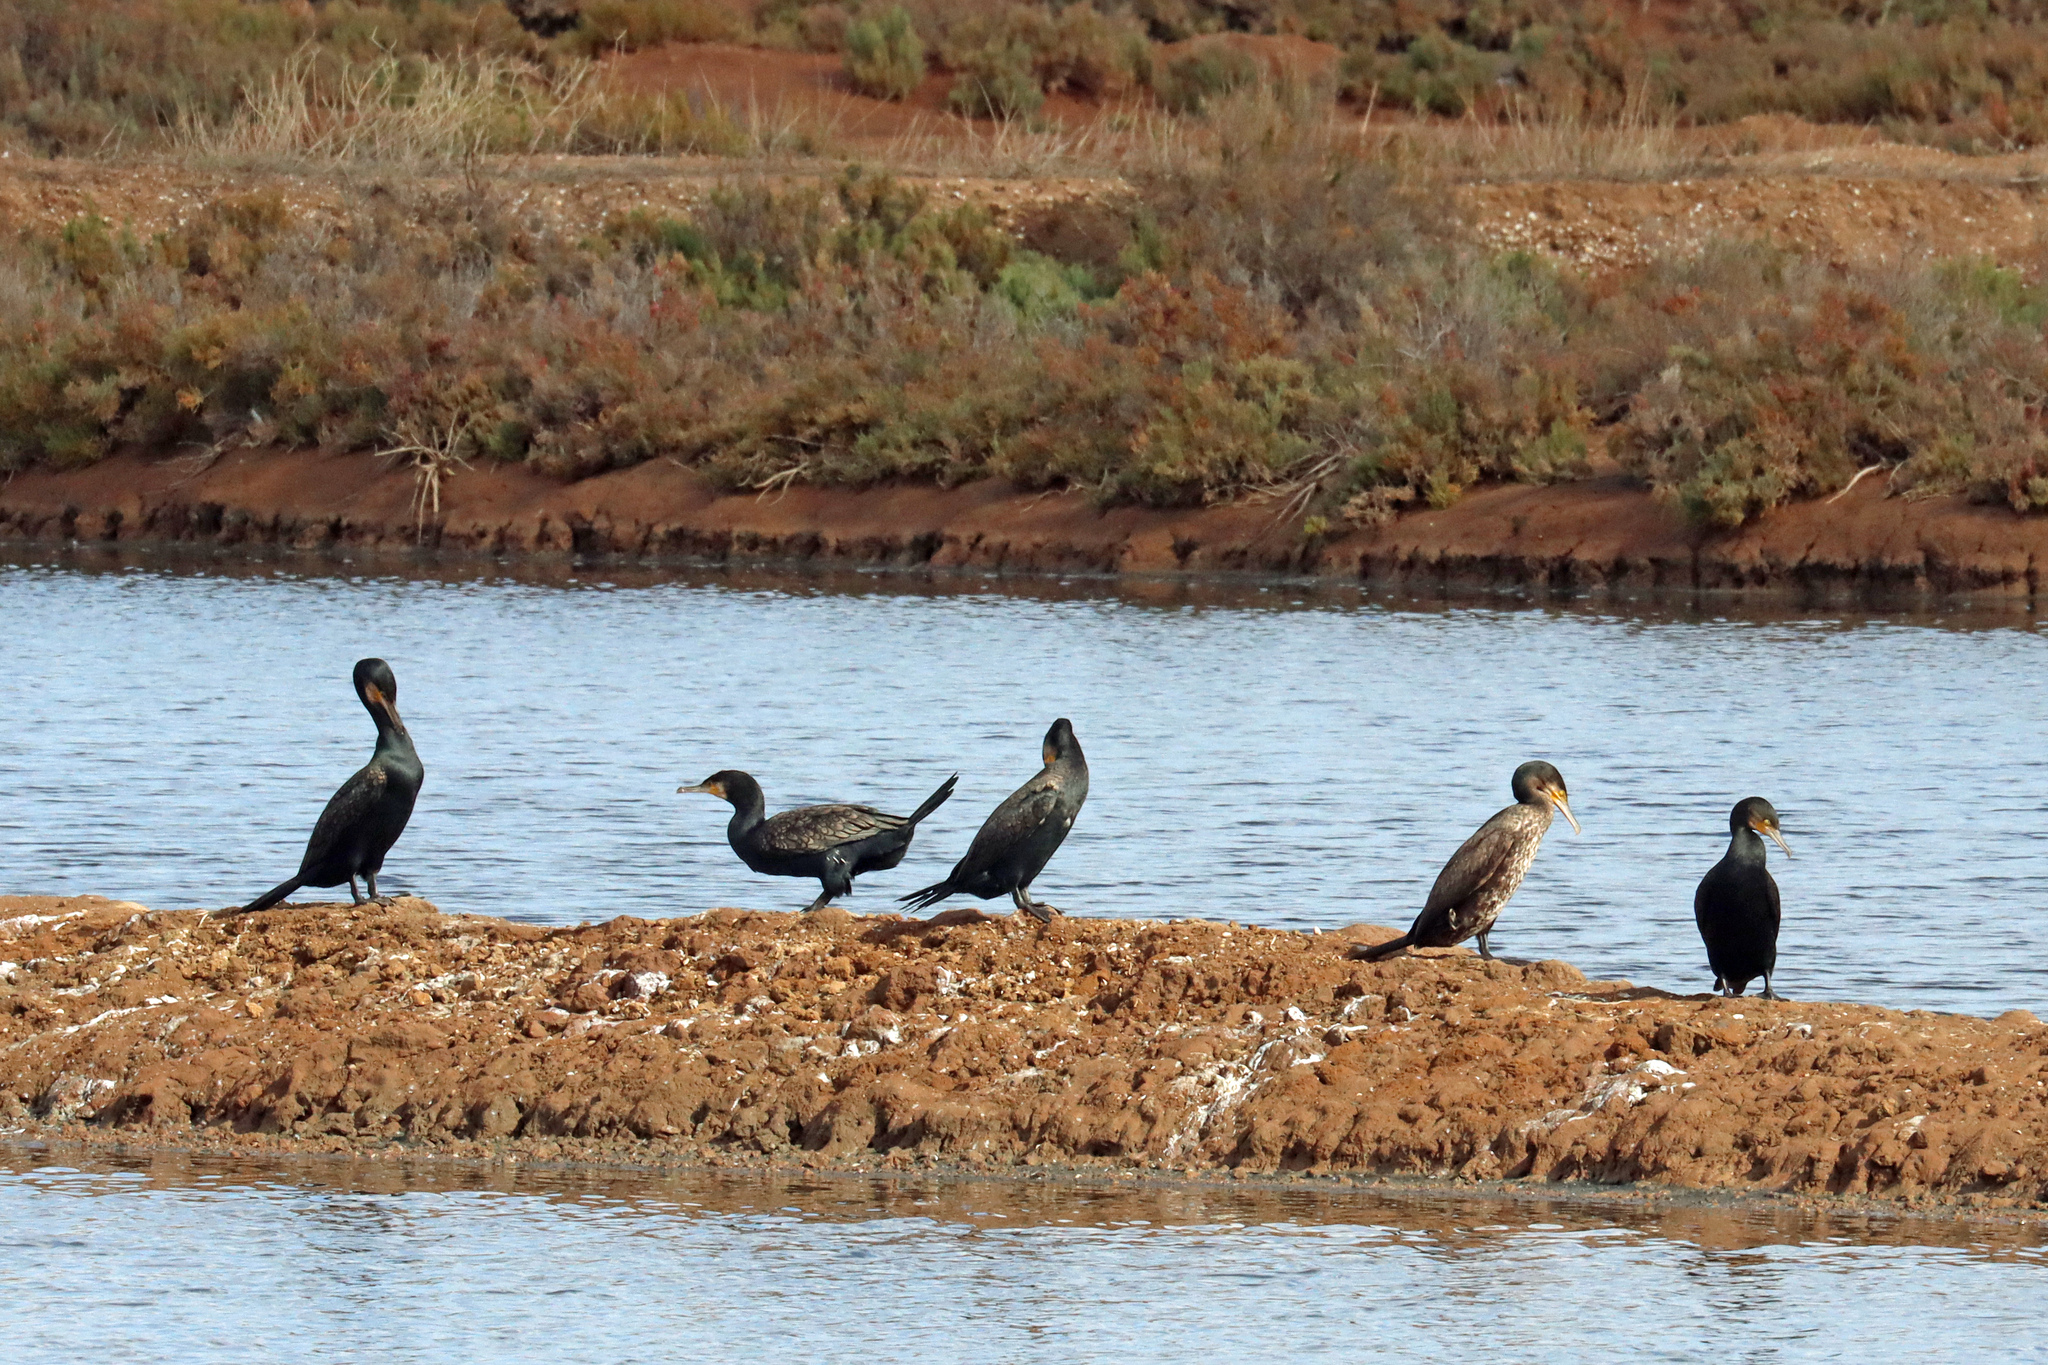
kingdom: Animalia
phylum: Chordata
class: Aves
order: Suliformes
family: Phalacrocoracidae
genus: Phalacrocorax
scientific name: Phalacrocorax carbo
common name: Great cormorant
